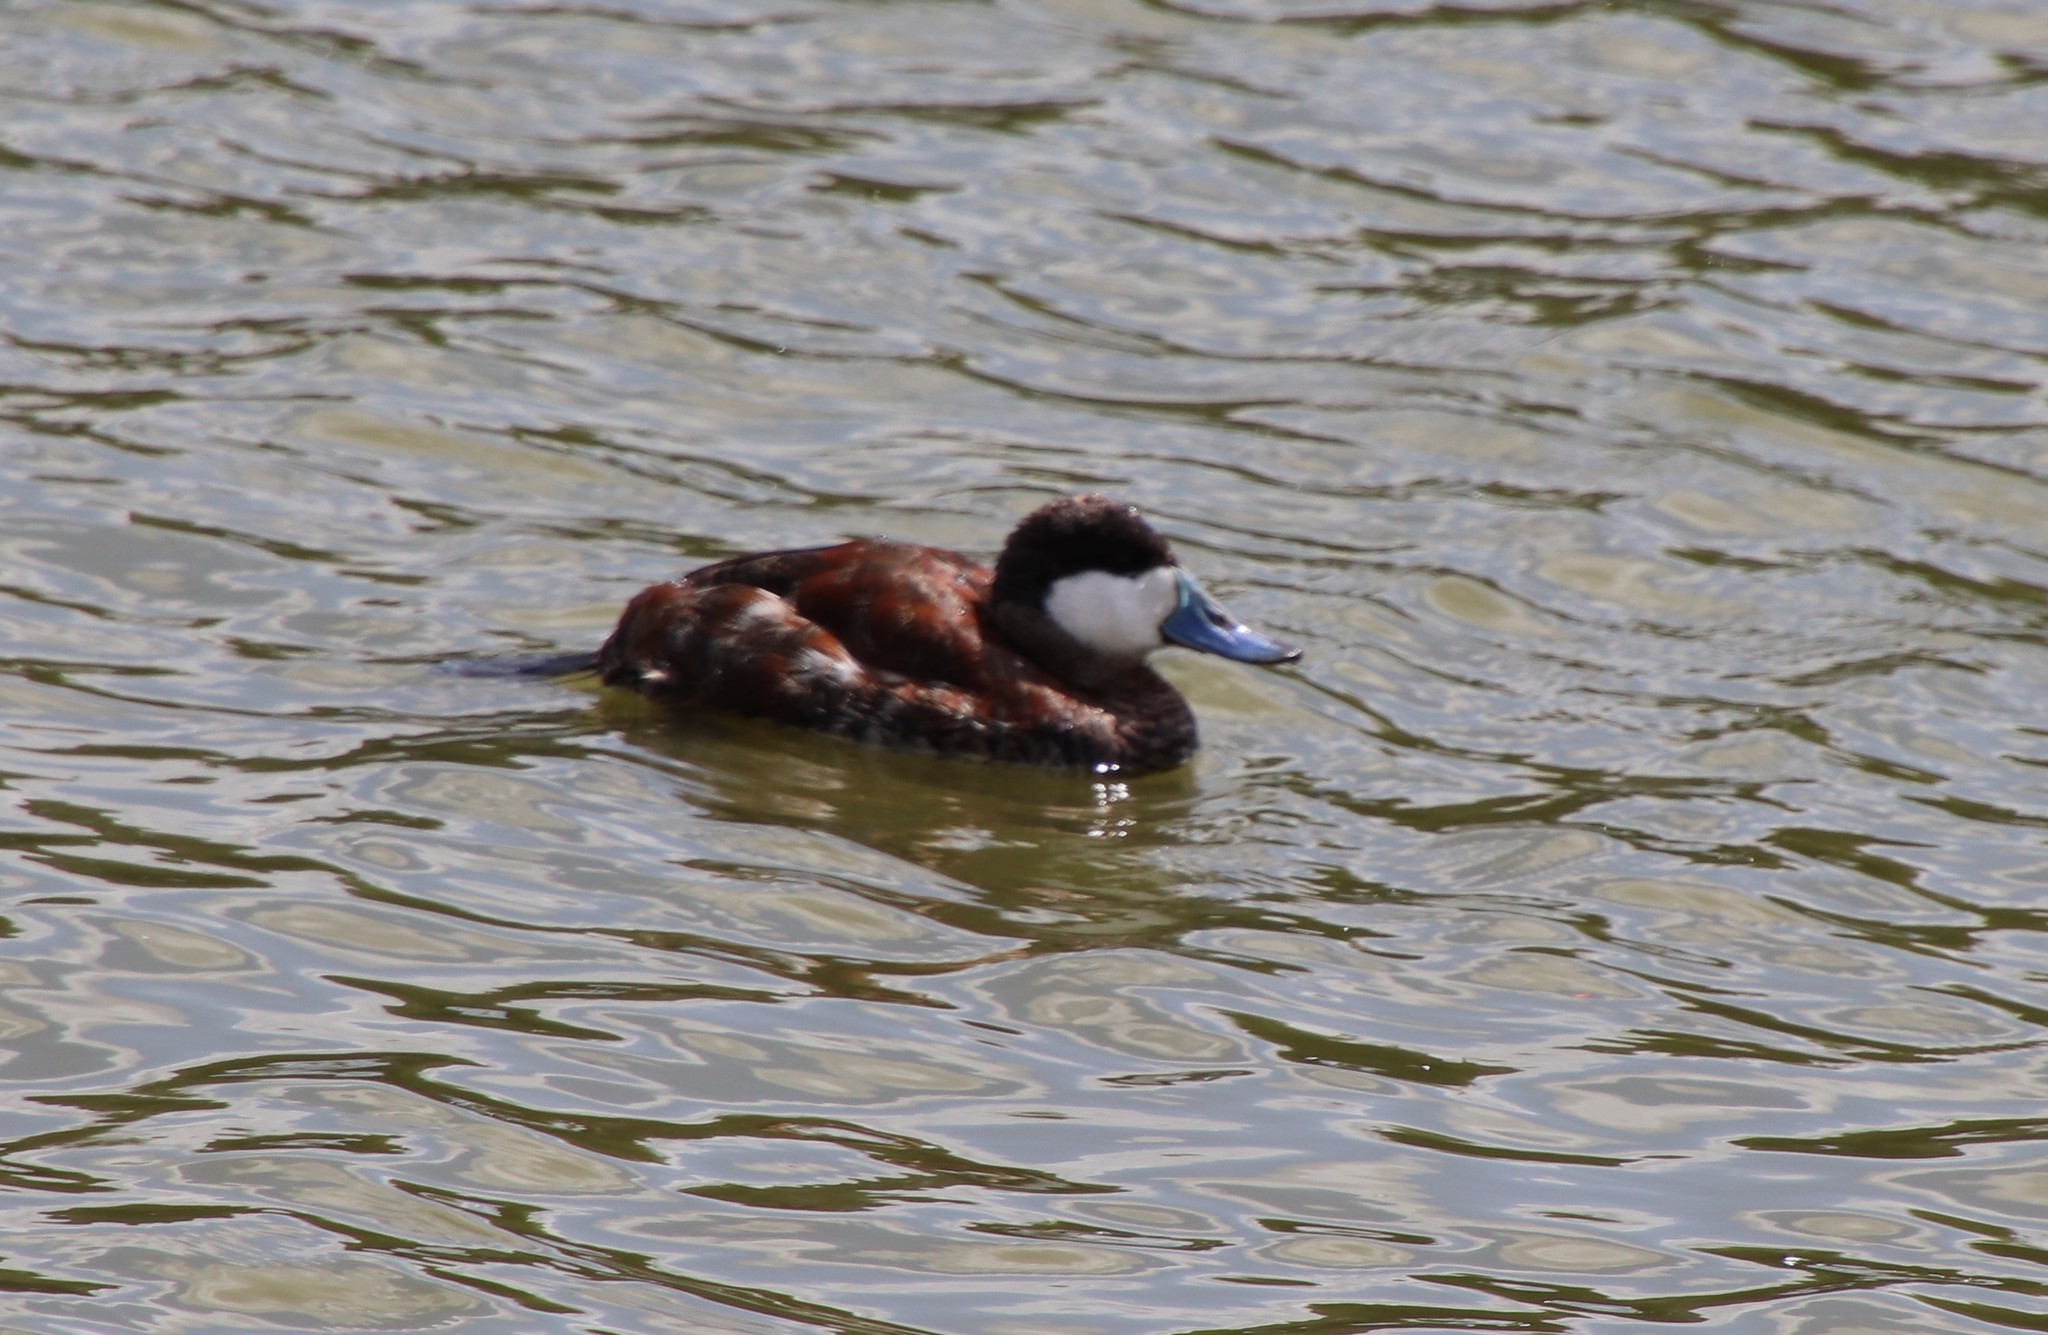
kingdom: Animalia
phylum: Chordata
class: Aves
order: Anseriformes
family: Anatidae
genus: Oxyura
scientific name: Oxyura jamaicensis
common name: Ruddy duck
